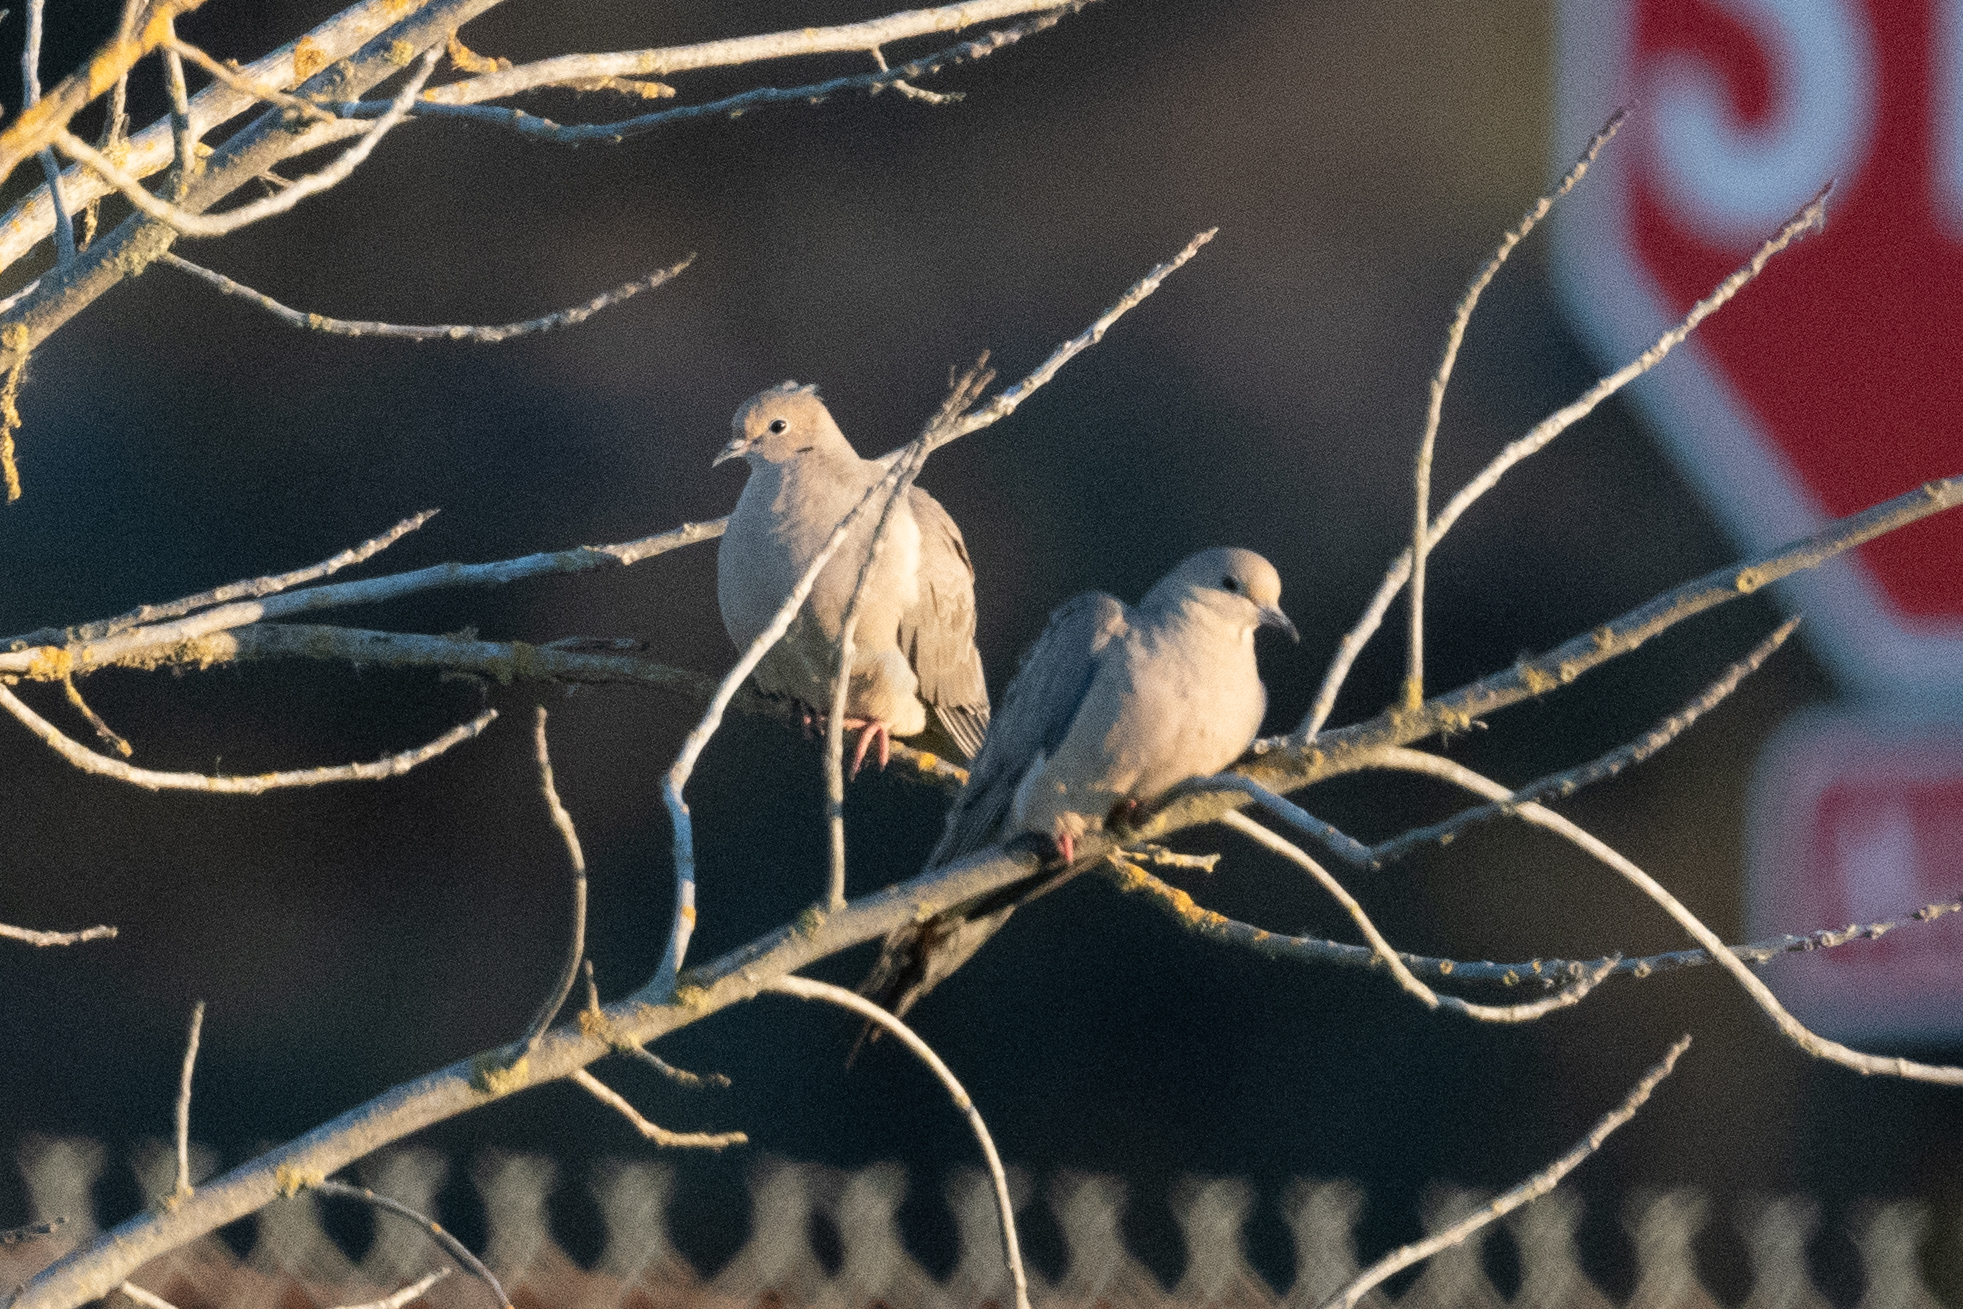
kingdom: Animalia
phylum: Chordata
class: Aves
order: Columbiformes
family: Columbidae
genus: Zenaida
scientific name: Zenaida macroura
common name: Mourning dove
